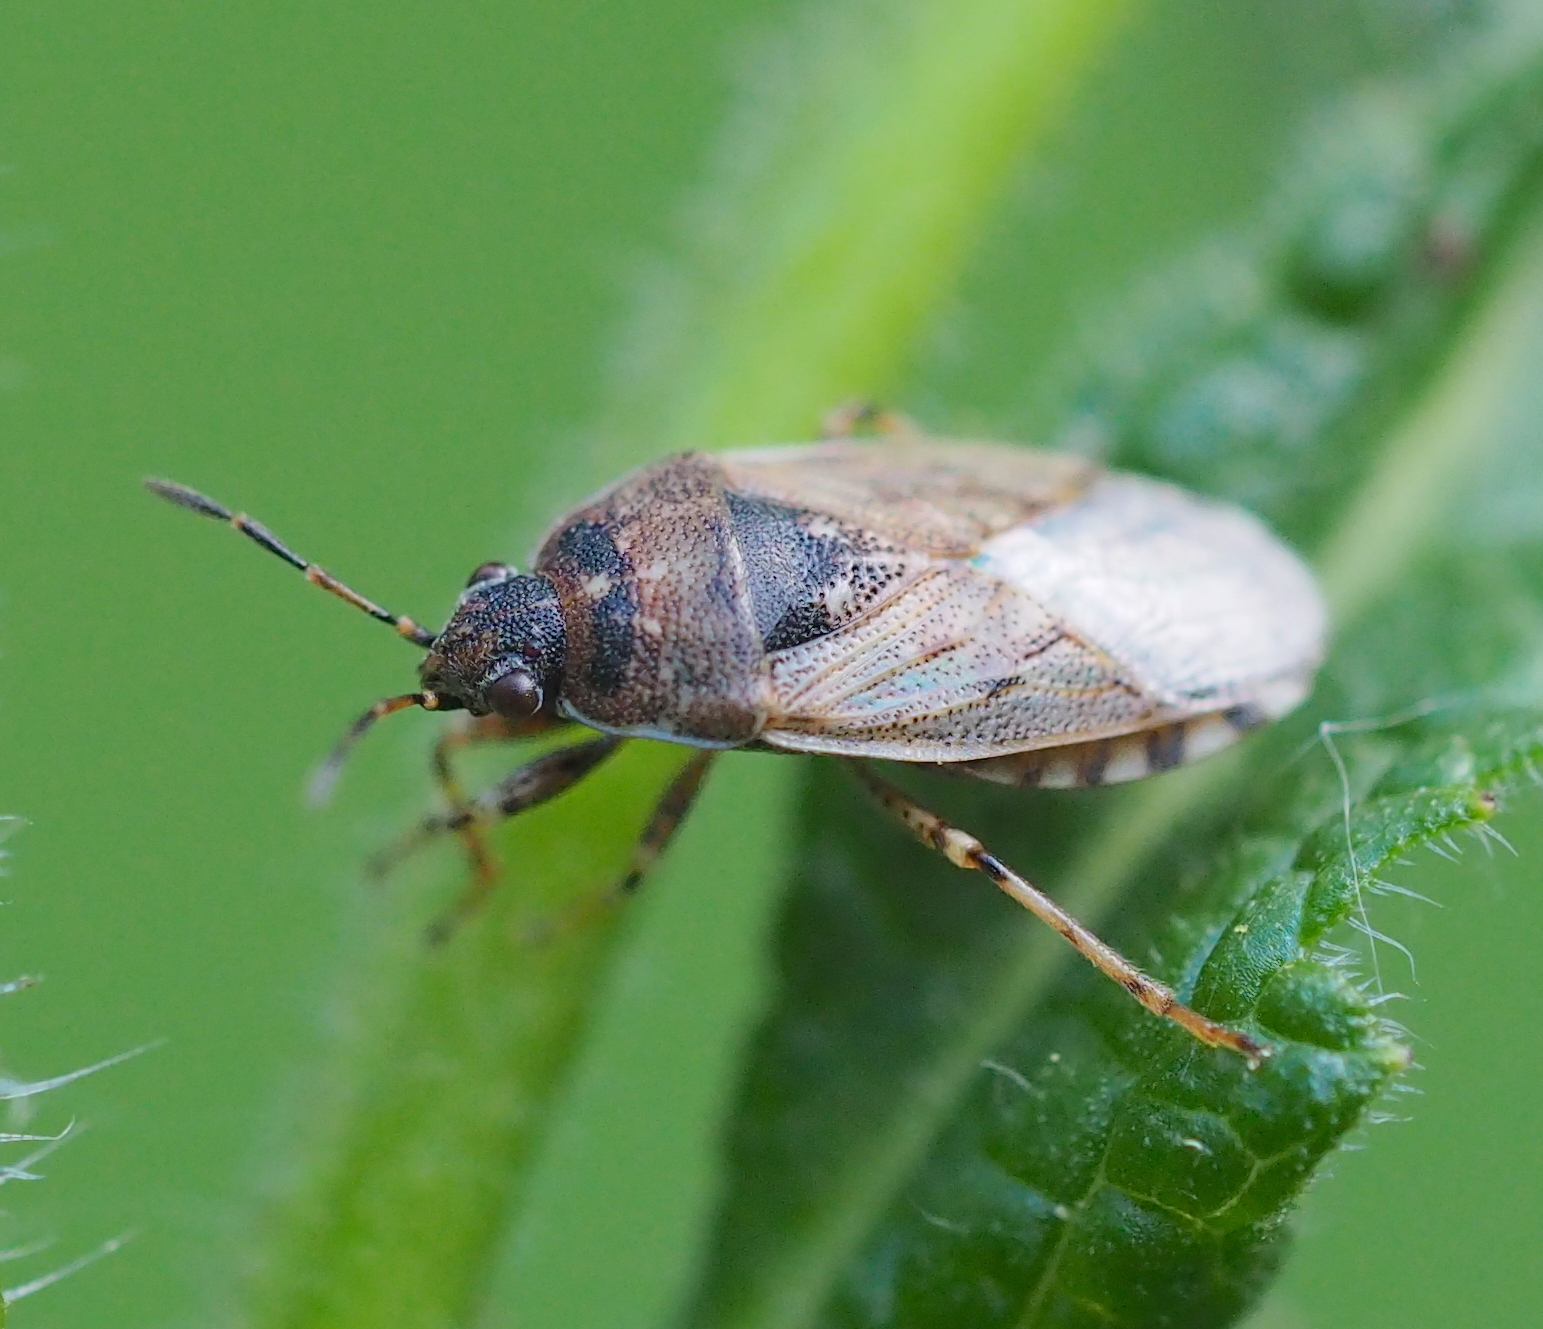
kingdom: Animalia
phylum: Arthropoda
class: Insecta
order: Hemiptera
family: Heterogastridae
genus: Platyplax
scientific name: Platyplax salviae
